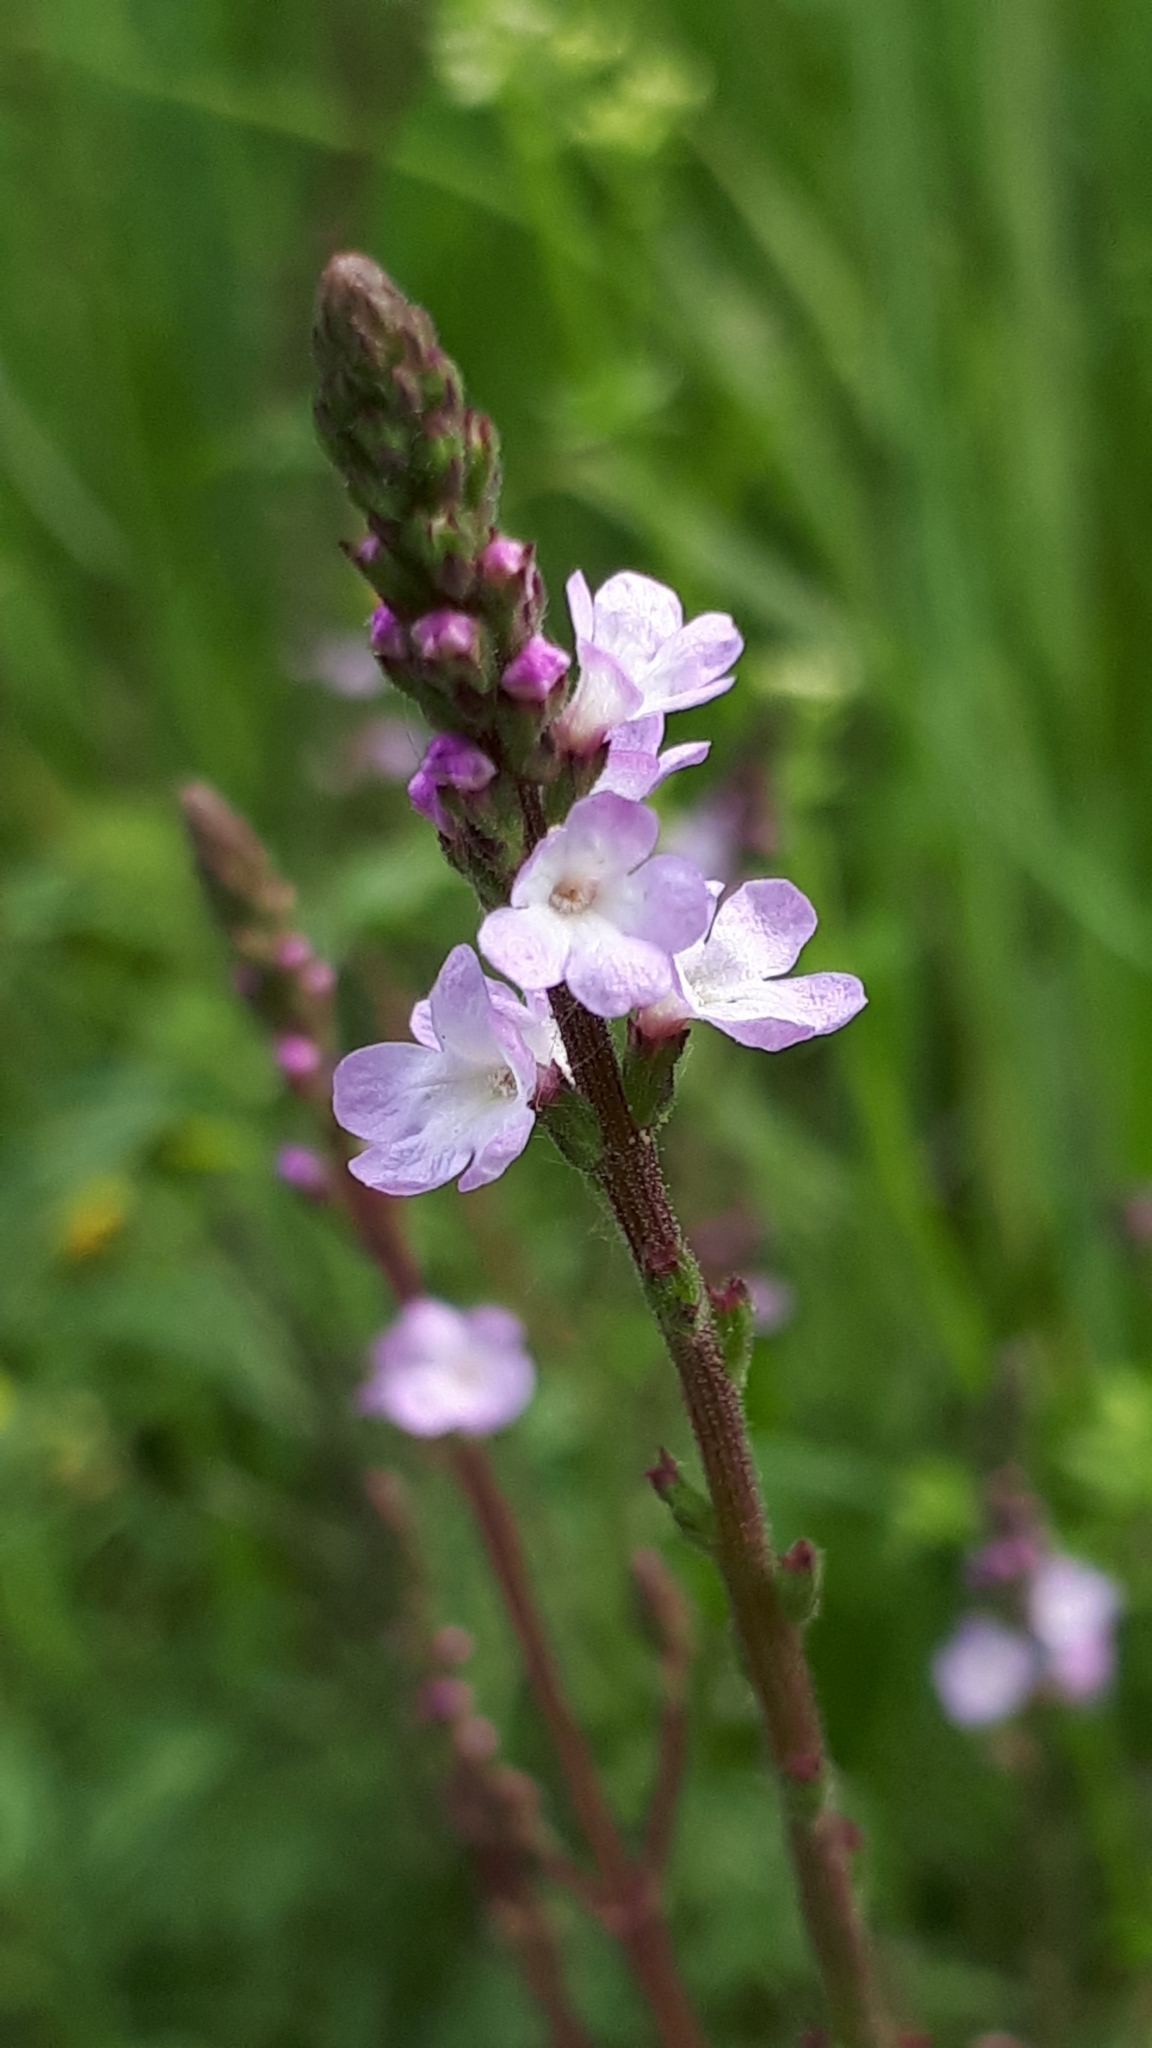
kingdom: Plantae
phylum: Tracheophyta
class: Magnoliopsida
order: Lamiales
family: Verbenaceae
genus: Verbena
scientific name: Verbena officinalis
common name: Vervain
